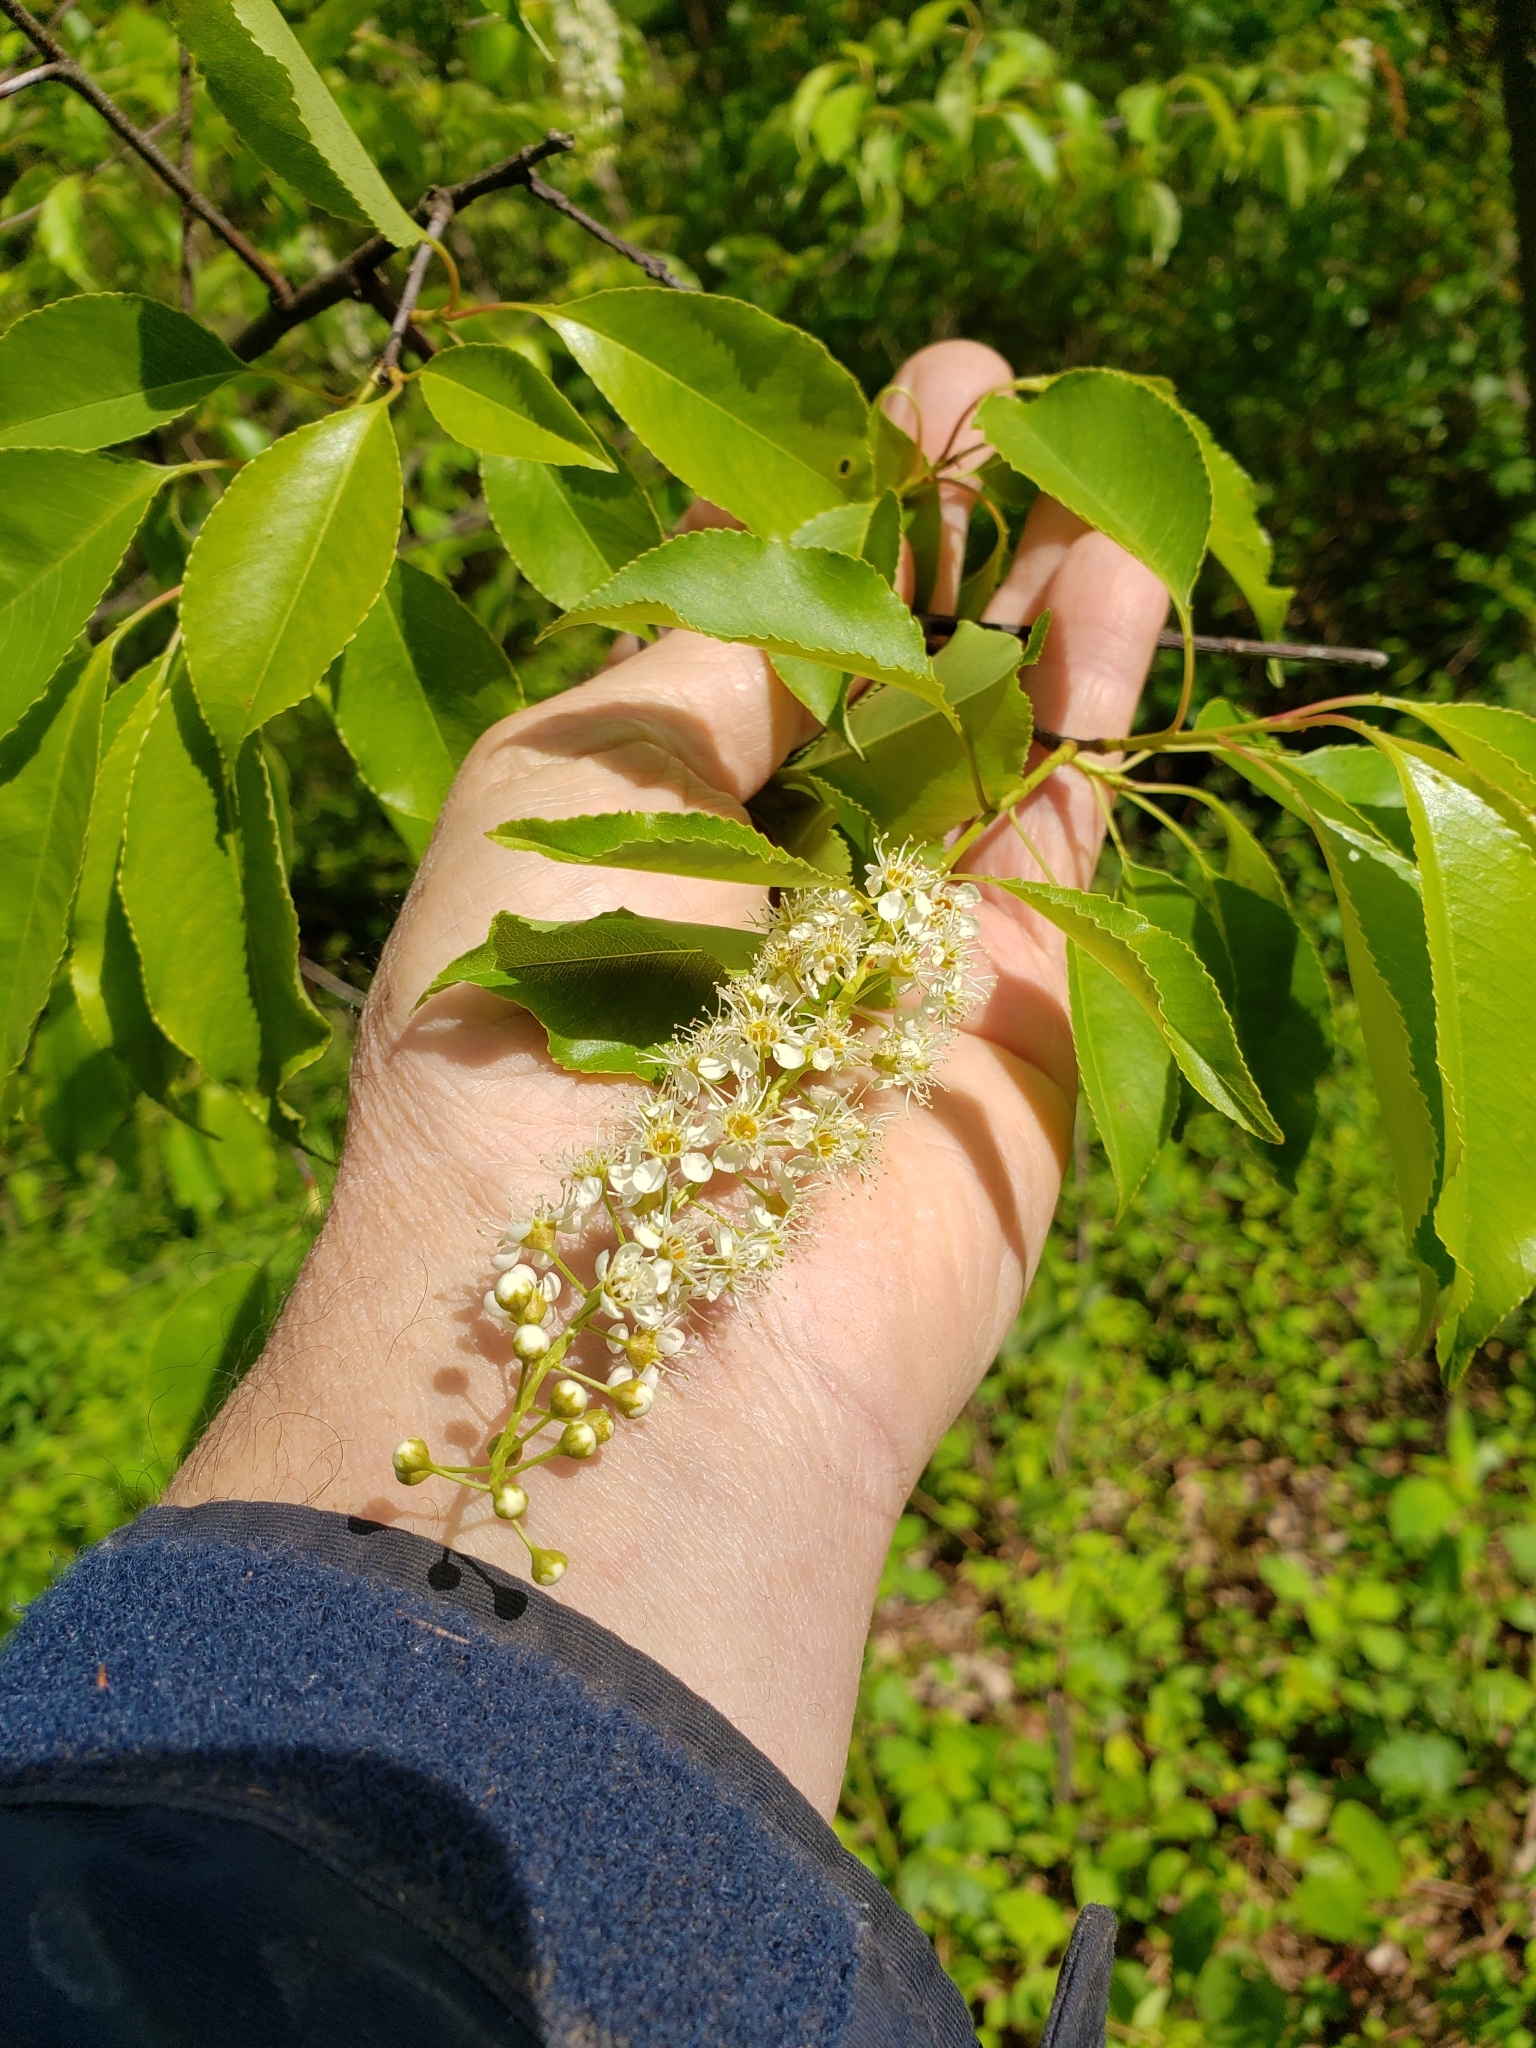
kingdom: Plantae
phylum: Tracheophyta
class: Magnoliopsida
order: Rosales
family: Rosaceae
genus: Prunus
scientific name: Prunus serotina
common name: Black cherry
